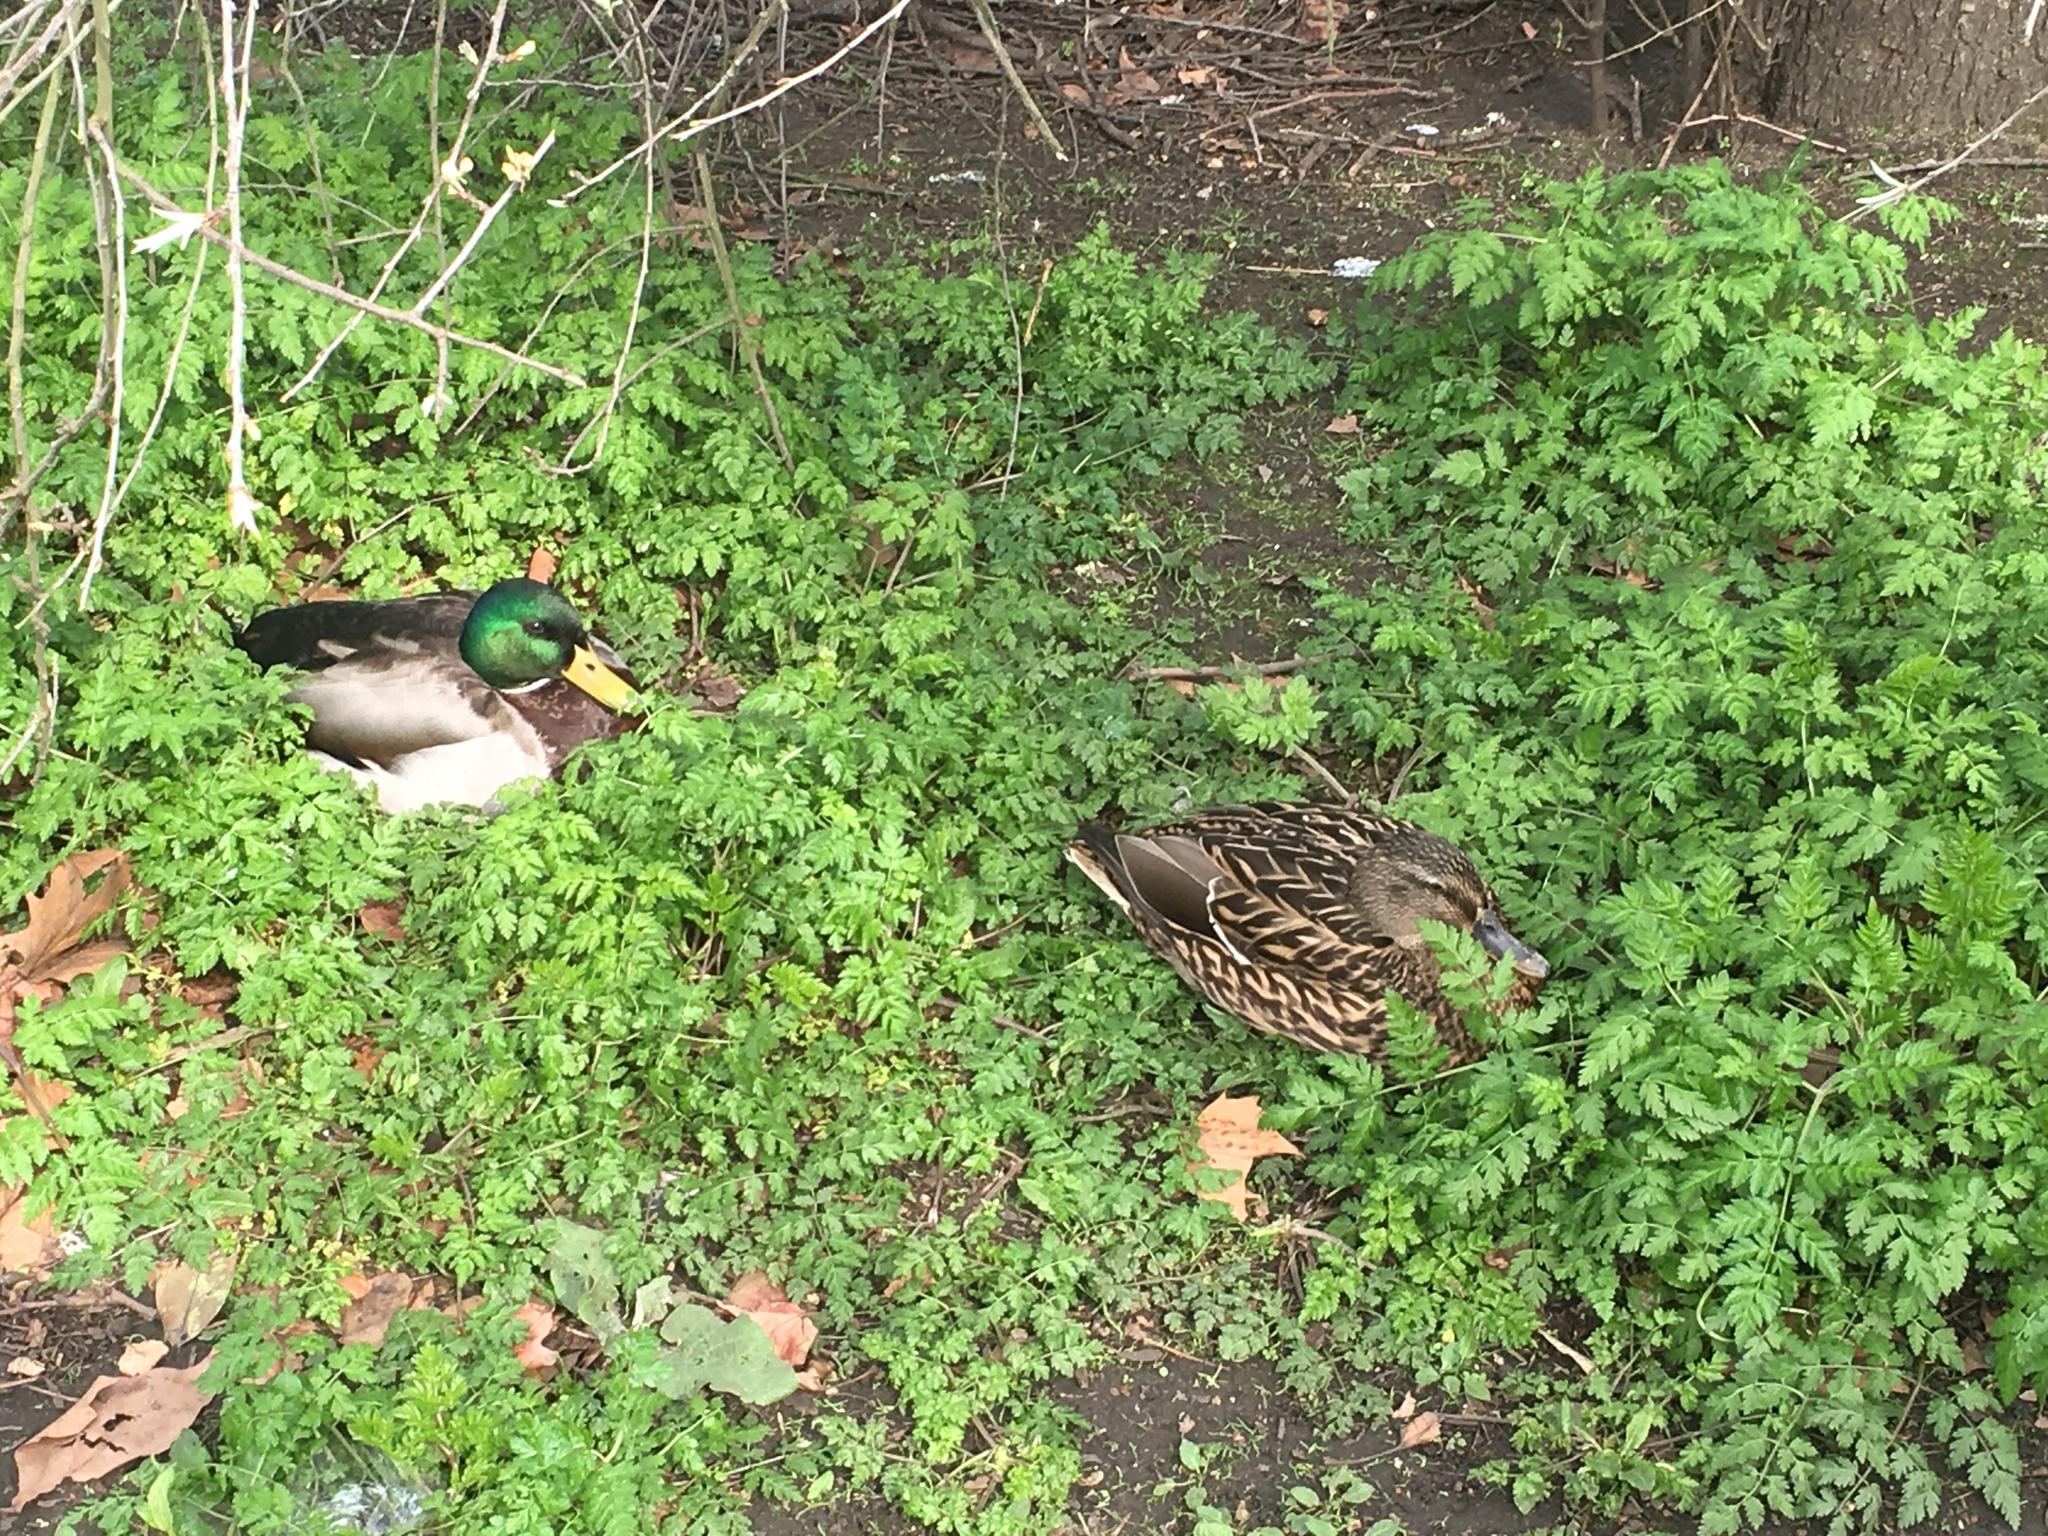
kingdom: Animalia
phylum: Chordata
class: Aves
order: Anseriformes
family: Anatidae
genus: Anas
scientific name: Anas platyrhynchos
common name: Mallard
